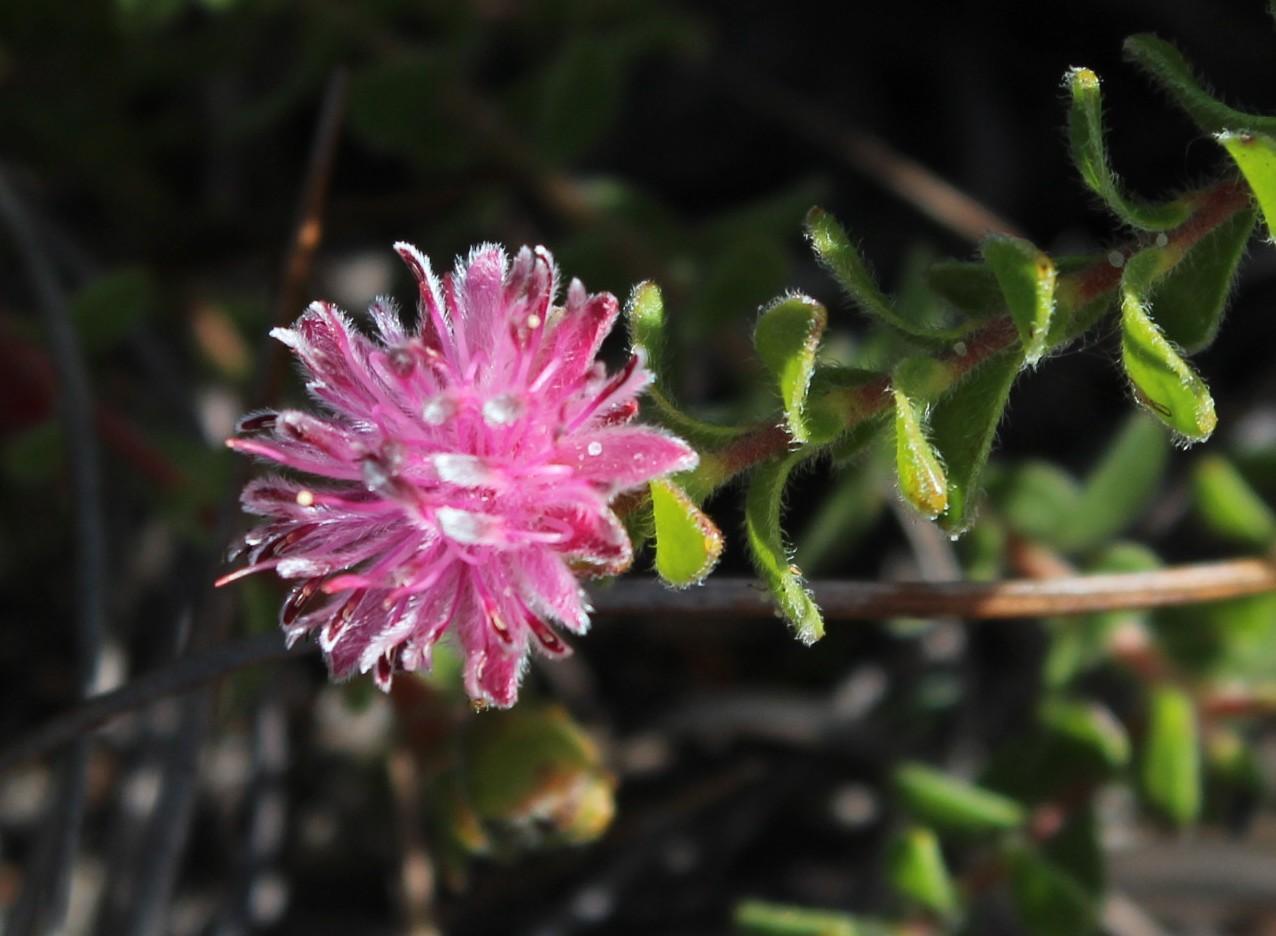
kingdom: Plantae
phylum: Tracheophyta
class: Magnoliopsida
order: Proteales
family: Proteaceae
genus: Diastella
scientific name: Diastella divaricata
